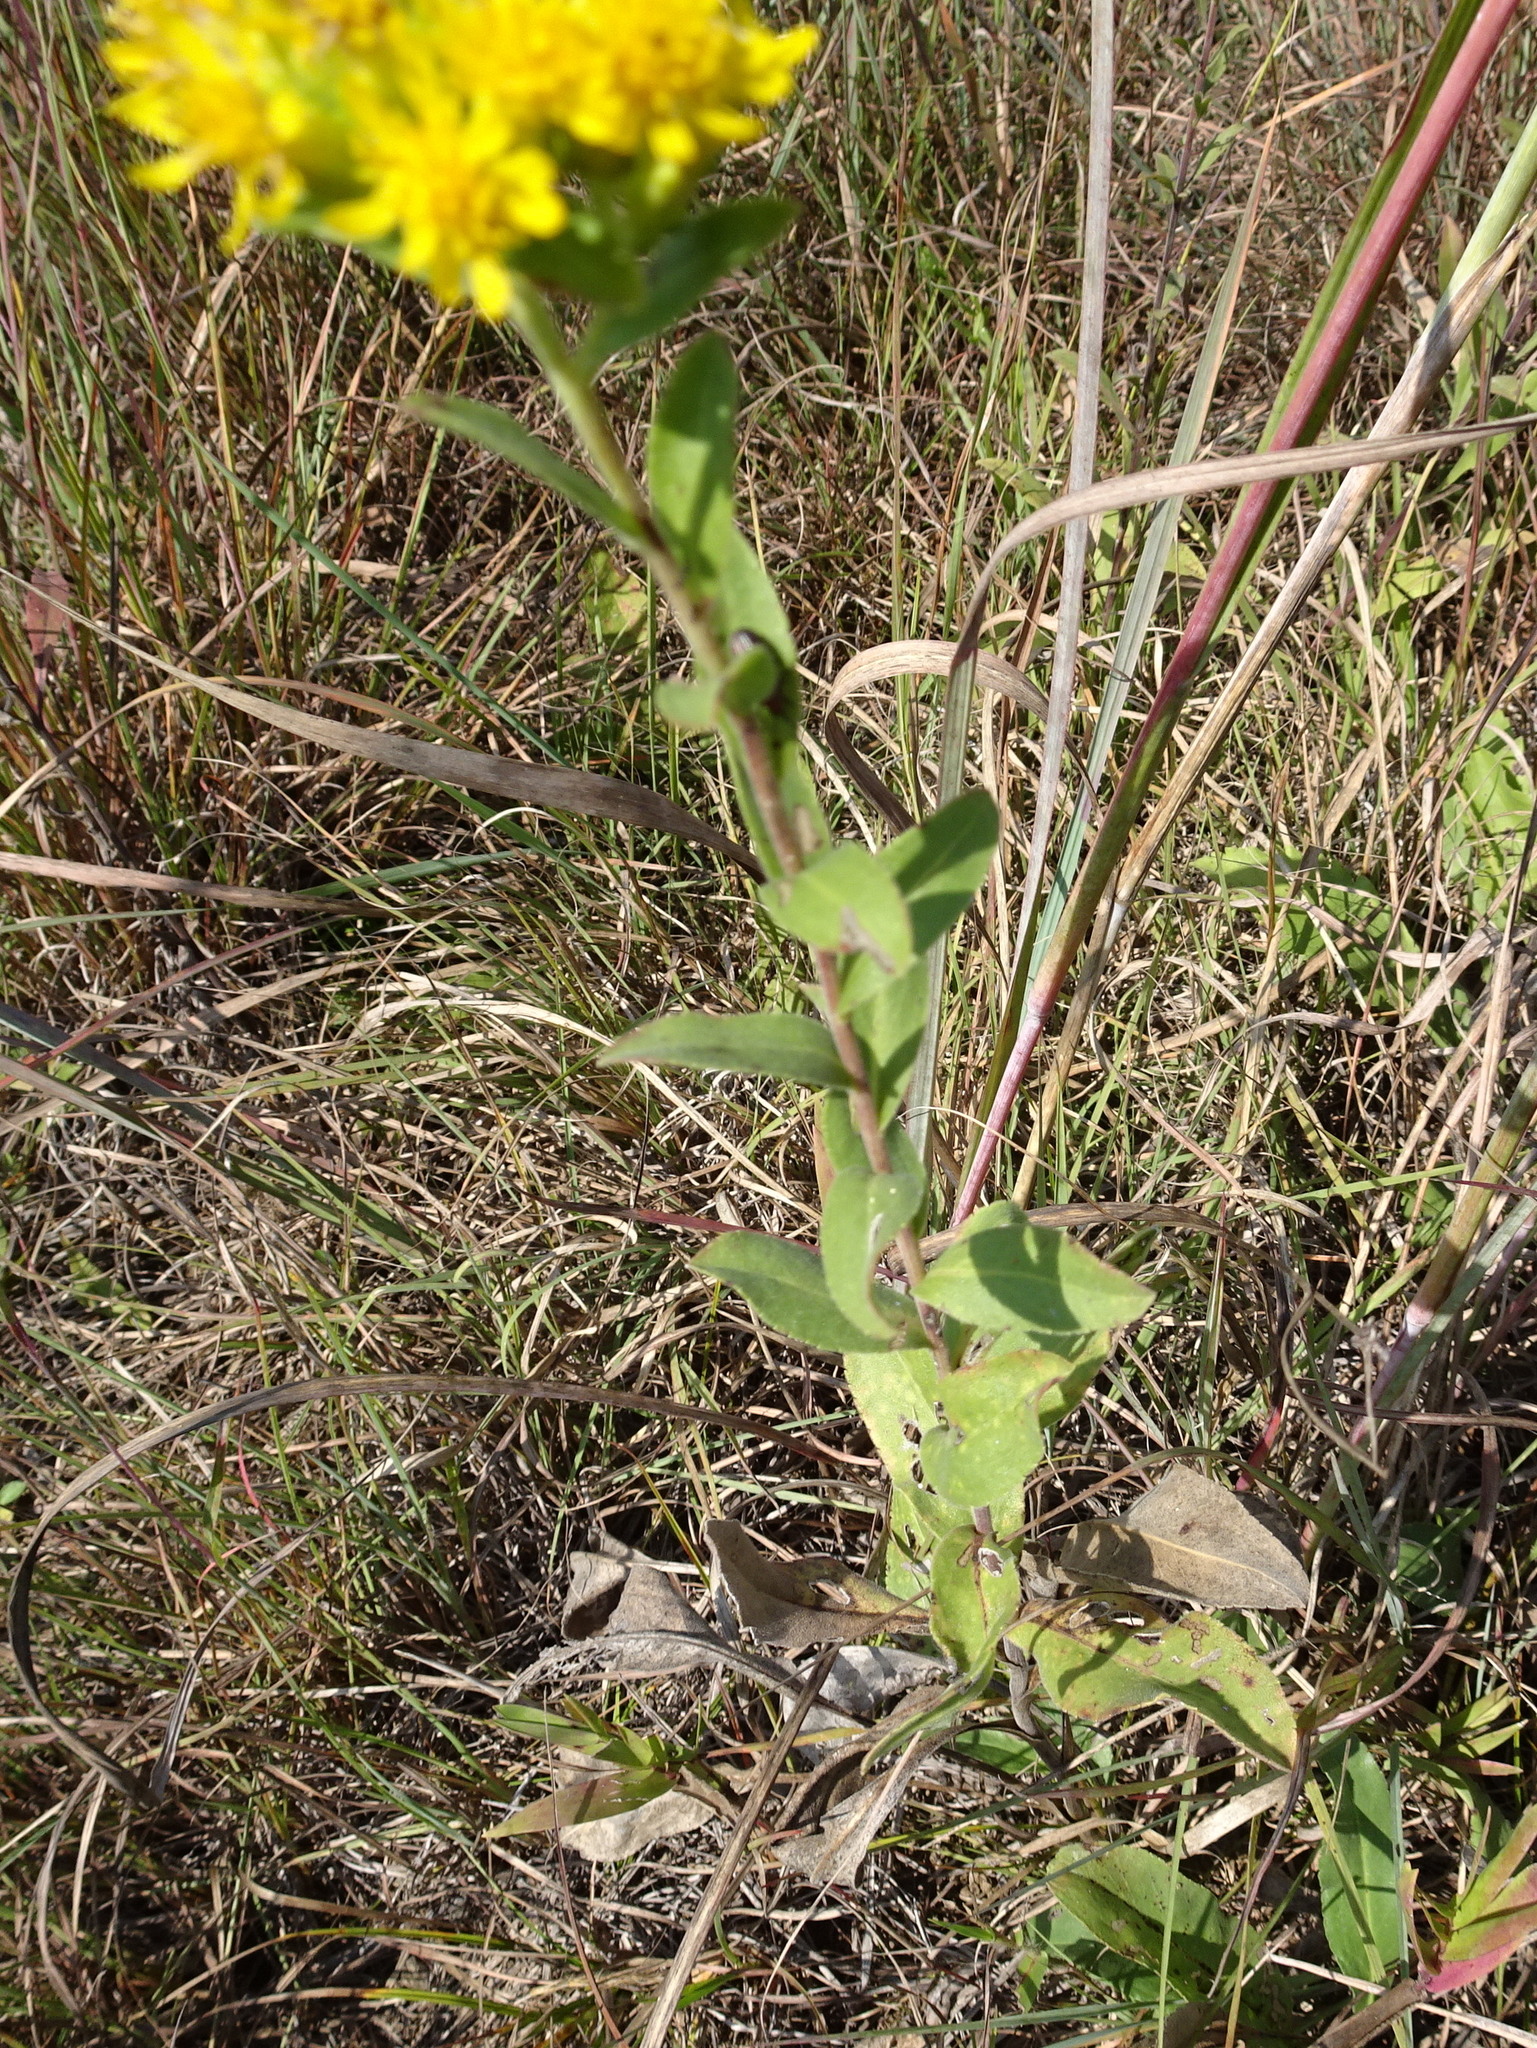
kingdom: Plantae
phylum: Tracheophyta
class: Magnoliopsida
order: Asterales
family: Asteraceae
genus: Solidago
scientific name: Solidago rigida
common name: Rigid goldenrod
